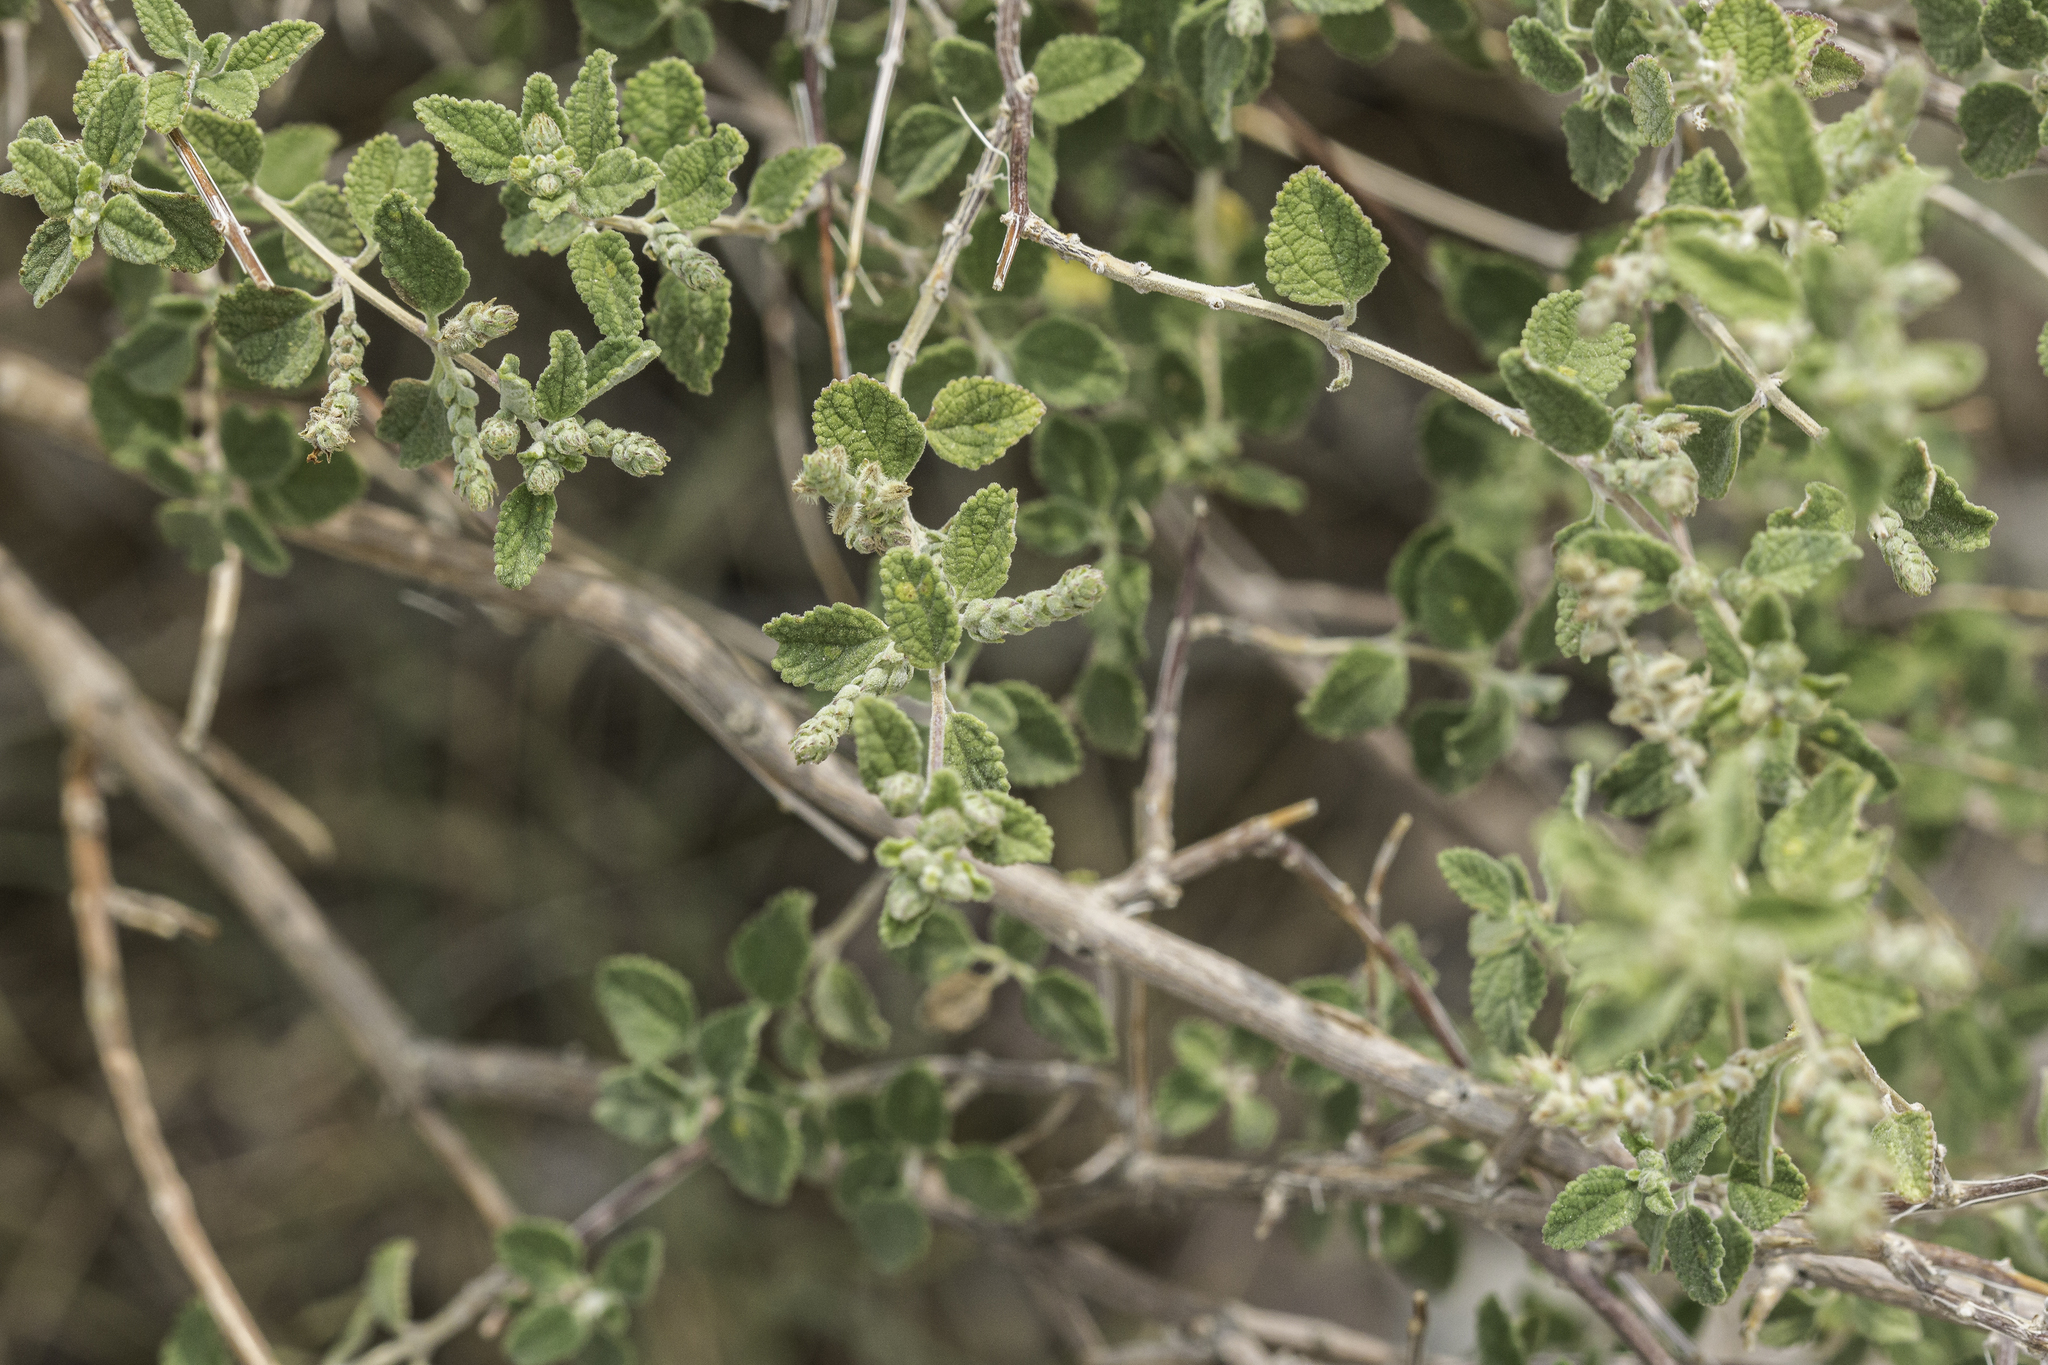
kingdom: Plantae
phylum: Tracheophyta
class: Magnoliopsida
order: Lamiales
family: Verbenaceae
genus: Aloysia
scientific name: Aloysia wrightii
